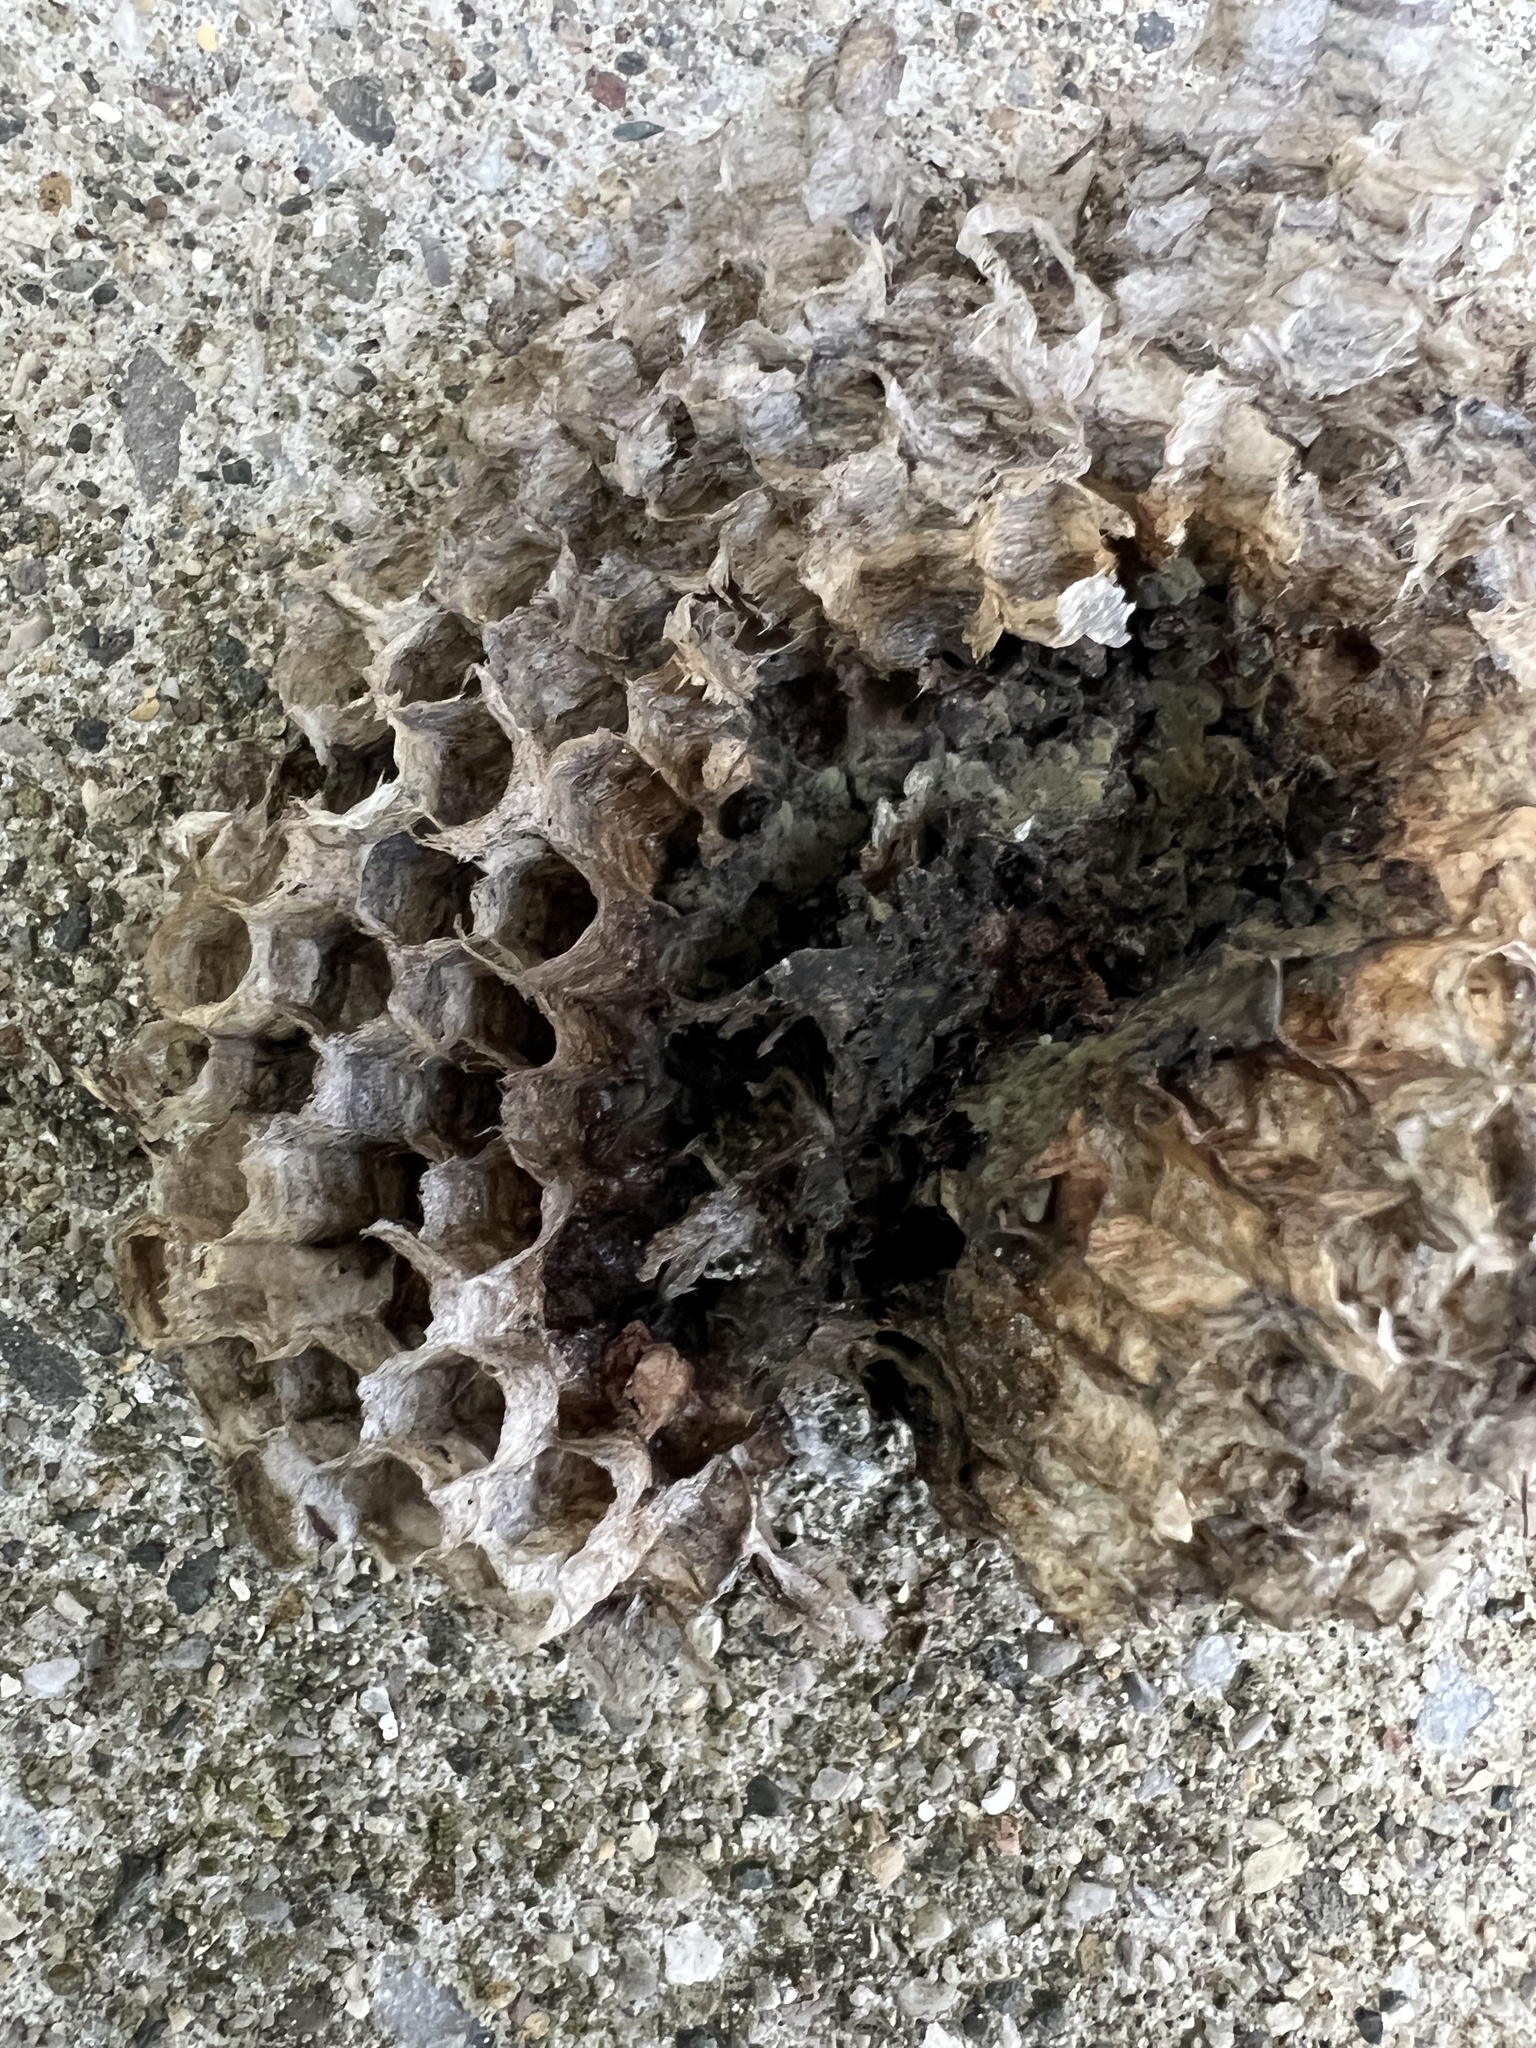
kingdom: Animalia
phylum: Arthropoda
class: Insecta
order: Hymenoptera
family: Eumenidae
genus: Polistes
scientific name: Polistes dominula
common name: Paper wasp
